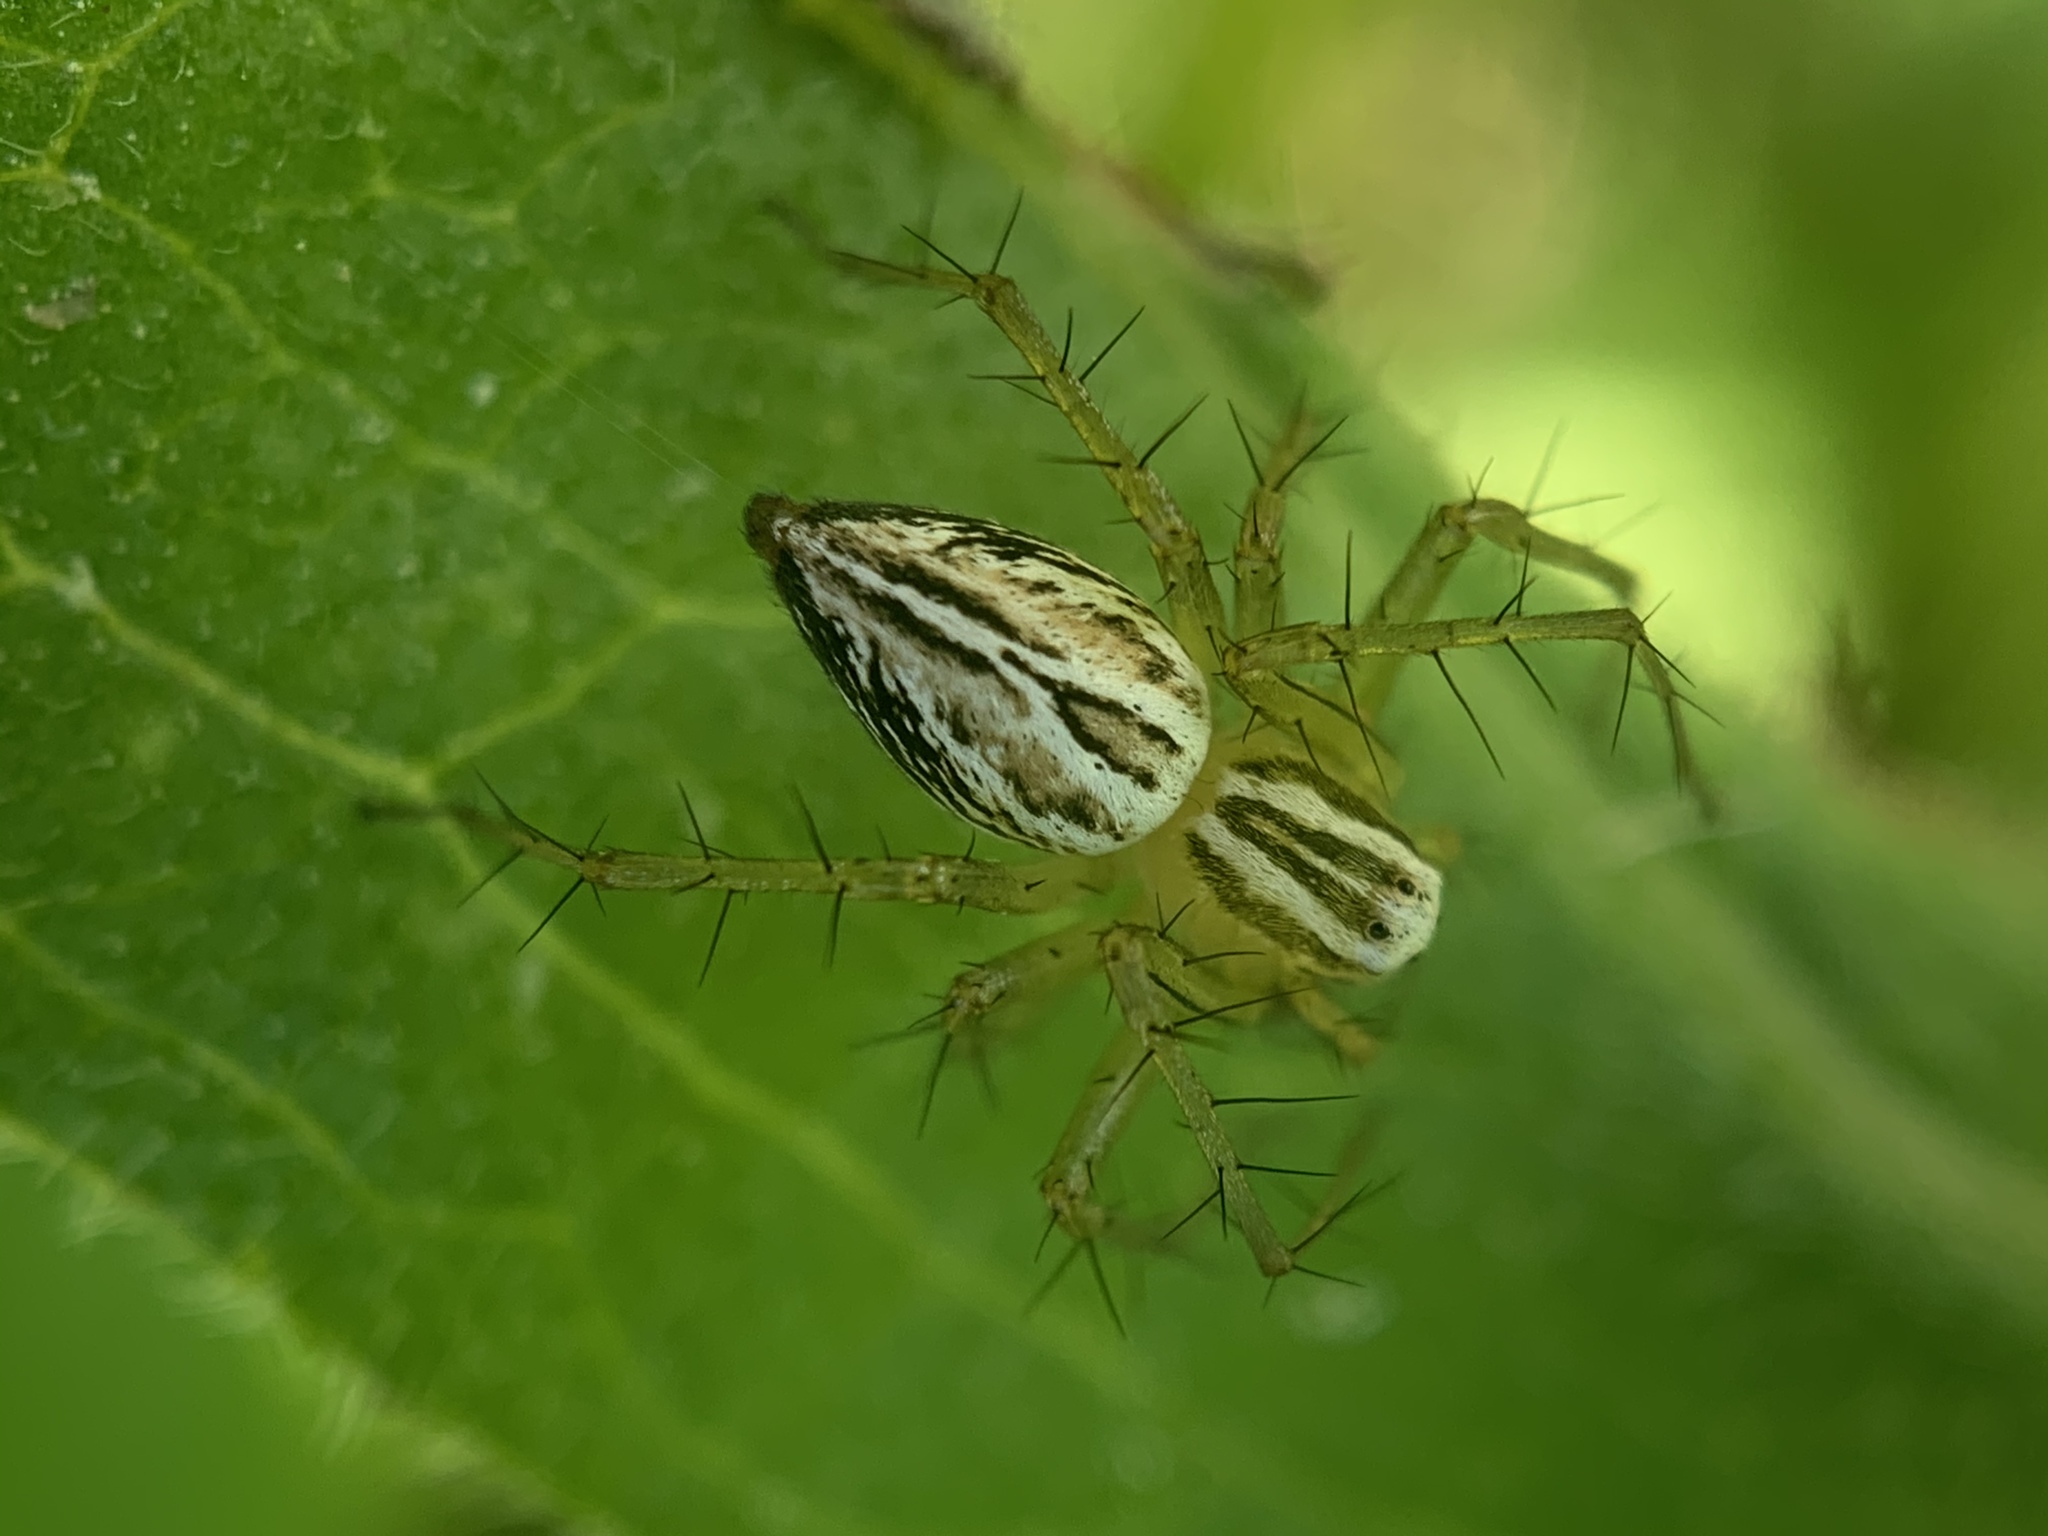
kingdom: Animalia
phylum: Arthropoda
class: Arachnida
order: Araneae
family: Oxyopidae
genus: Oxyopes
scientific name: Oxyopes salticus
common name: Lynx spiders
